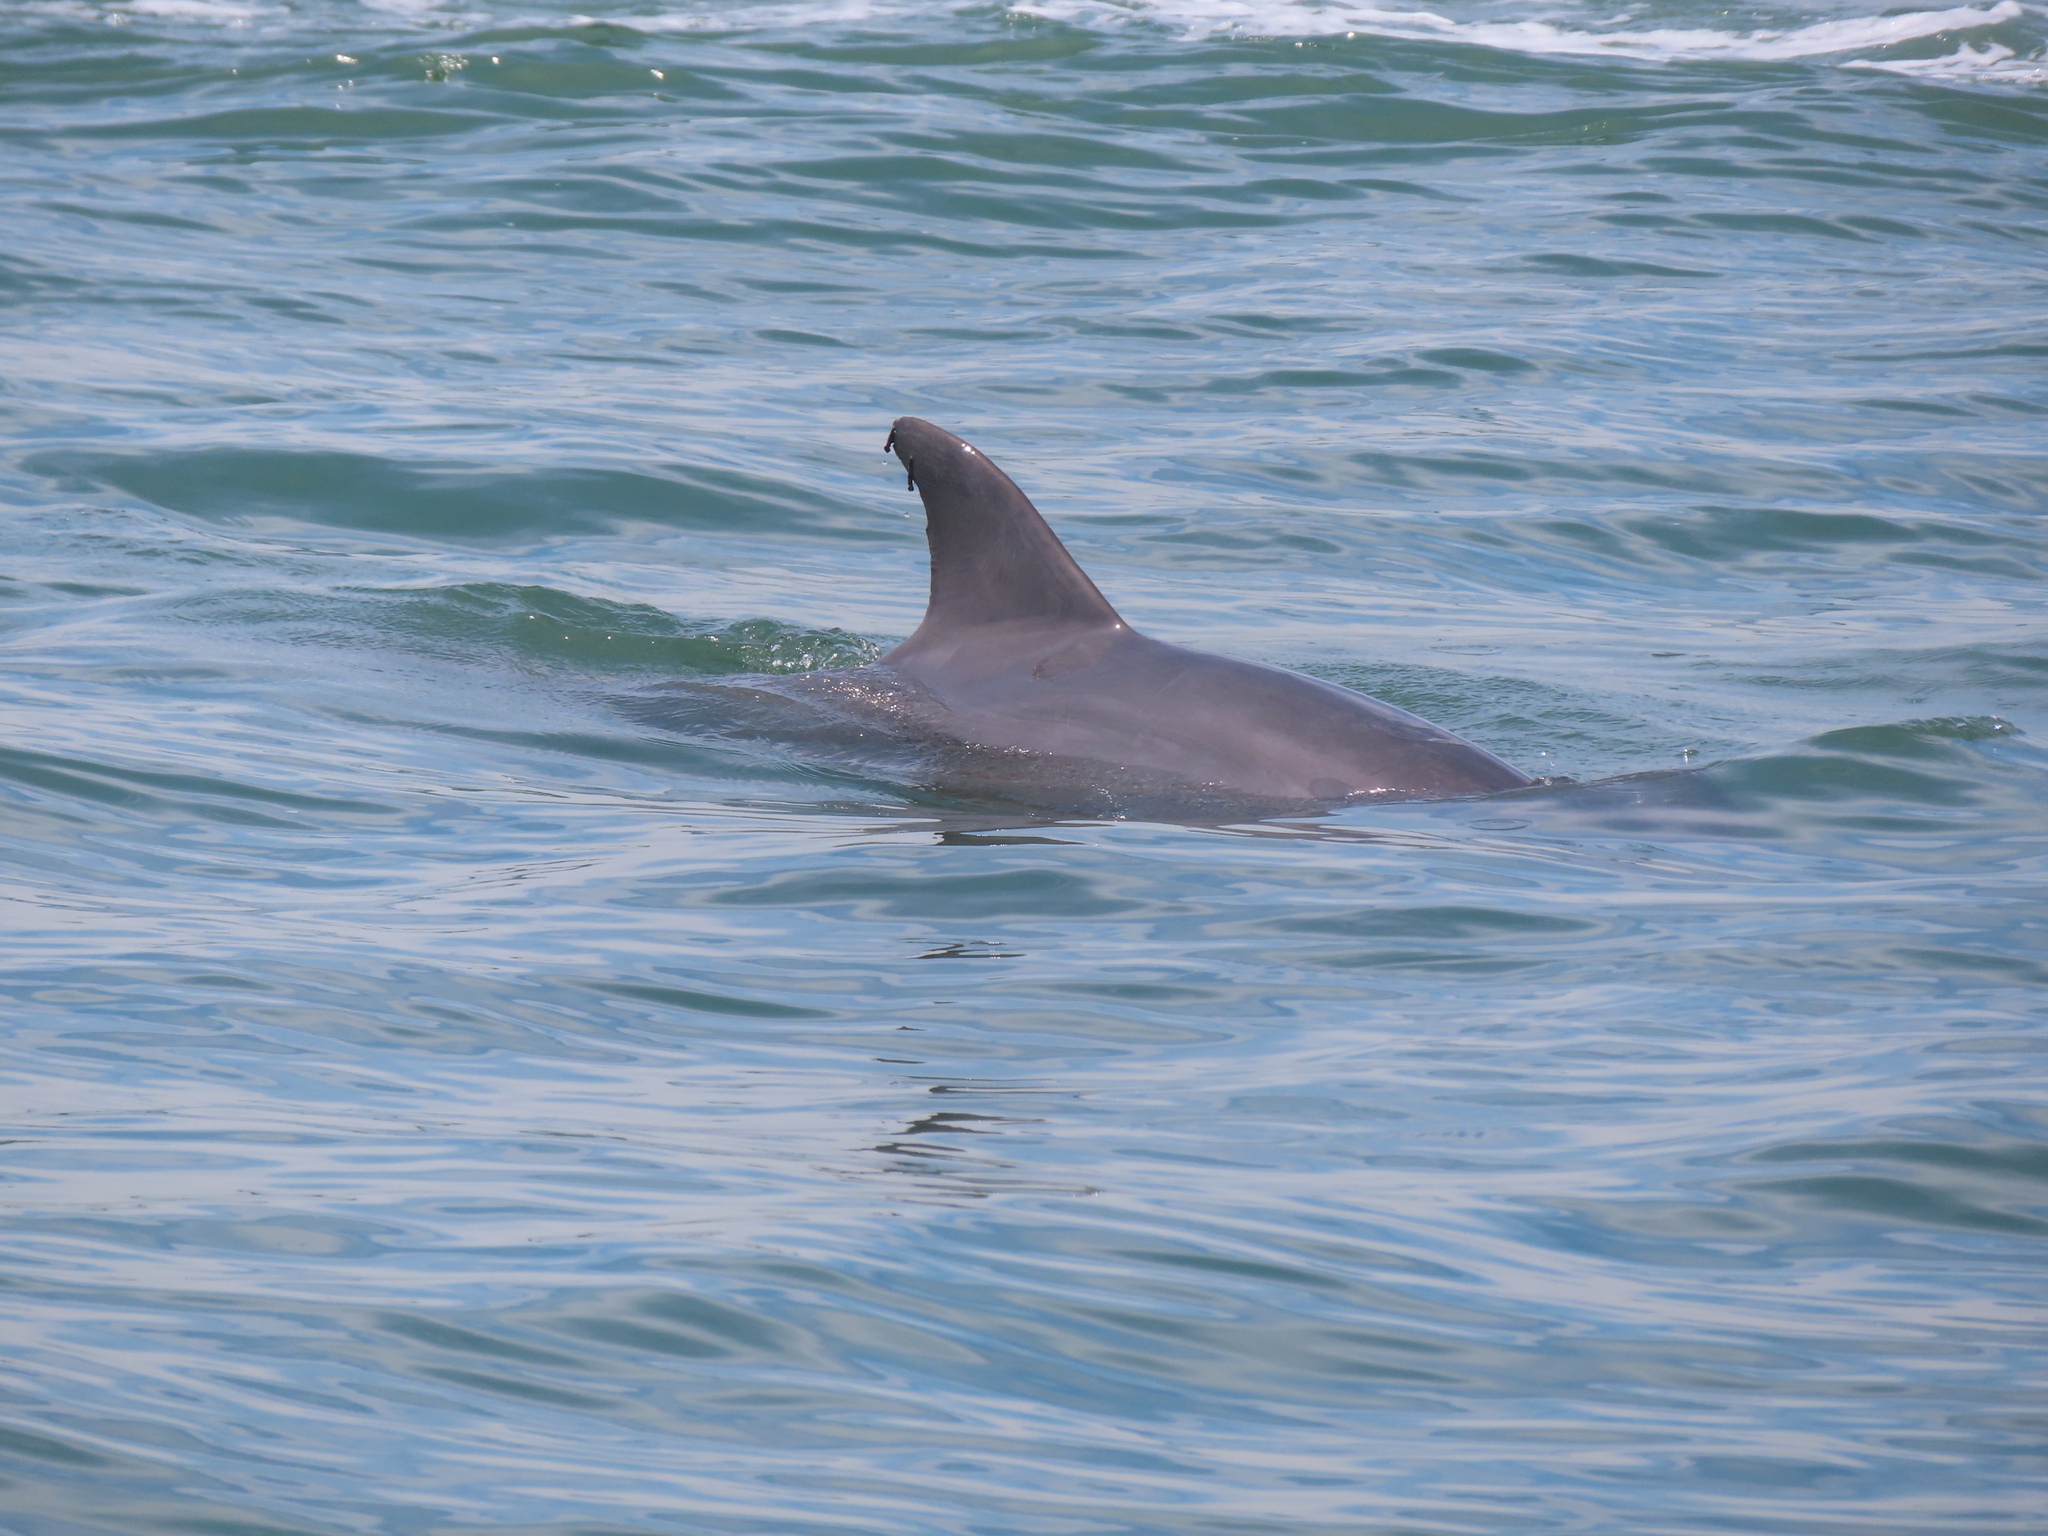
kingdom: Animalia
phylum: Chordata
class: Mammalia
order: Cetacea
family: Delphinidae
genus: Tursiops
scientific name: Tursiops truncatus
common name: Bottlenose dolphin
